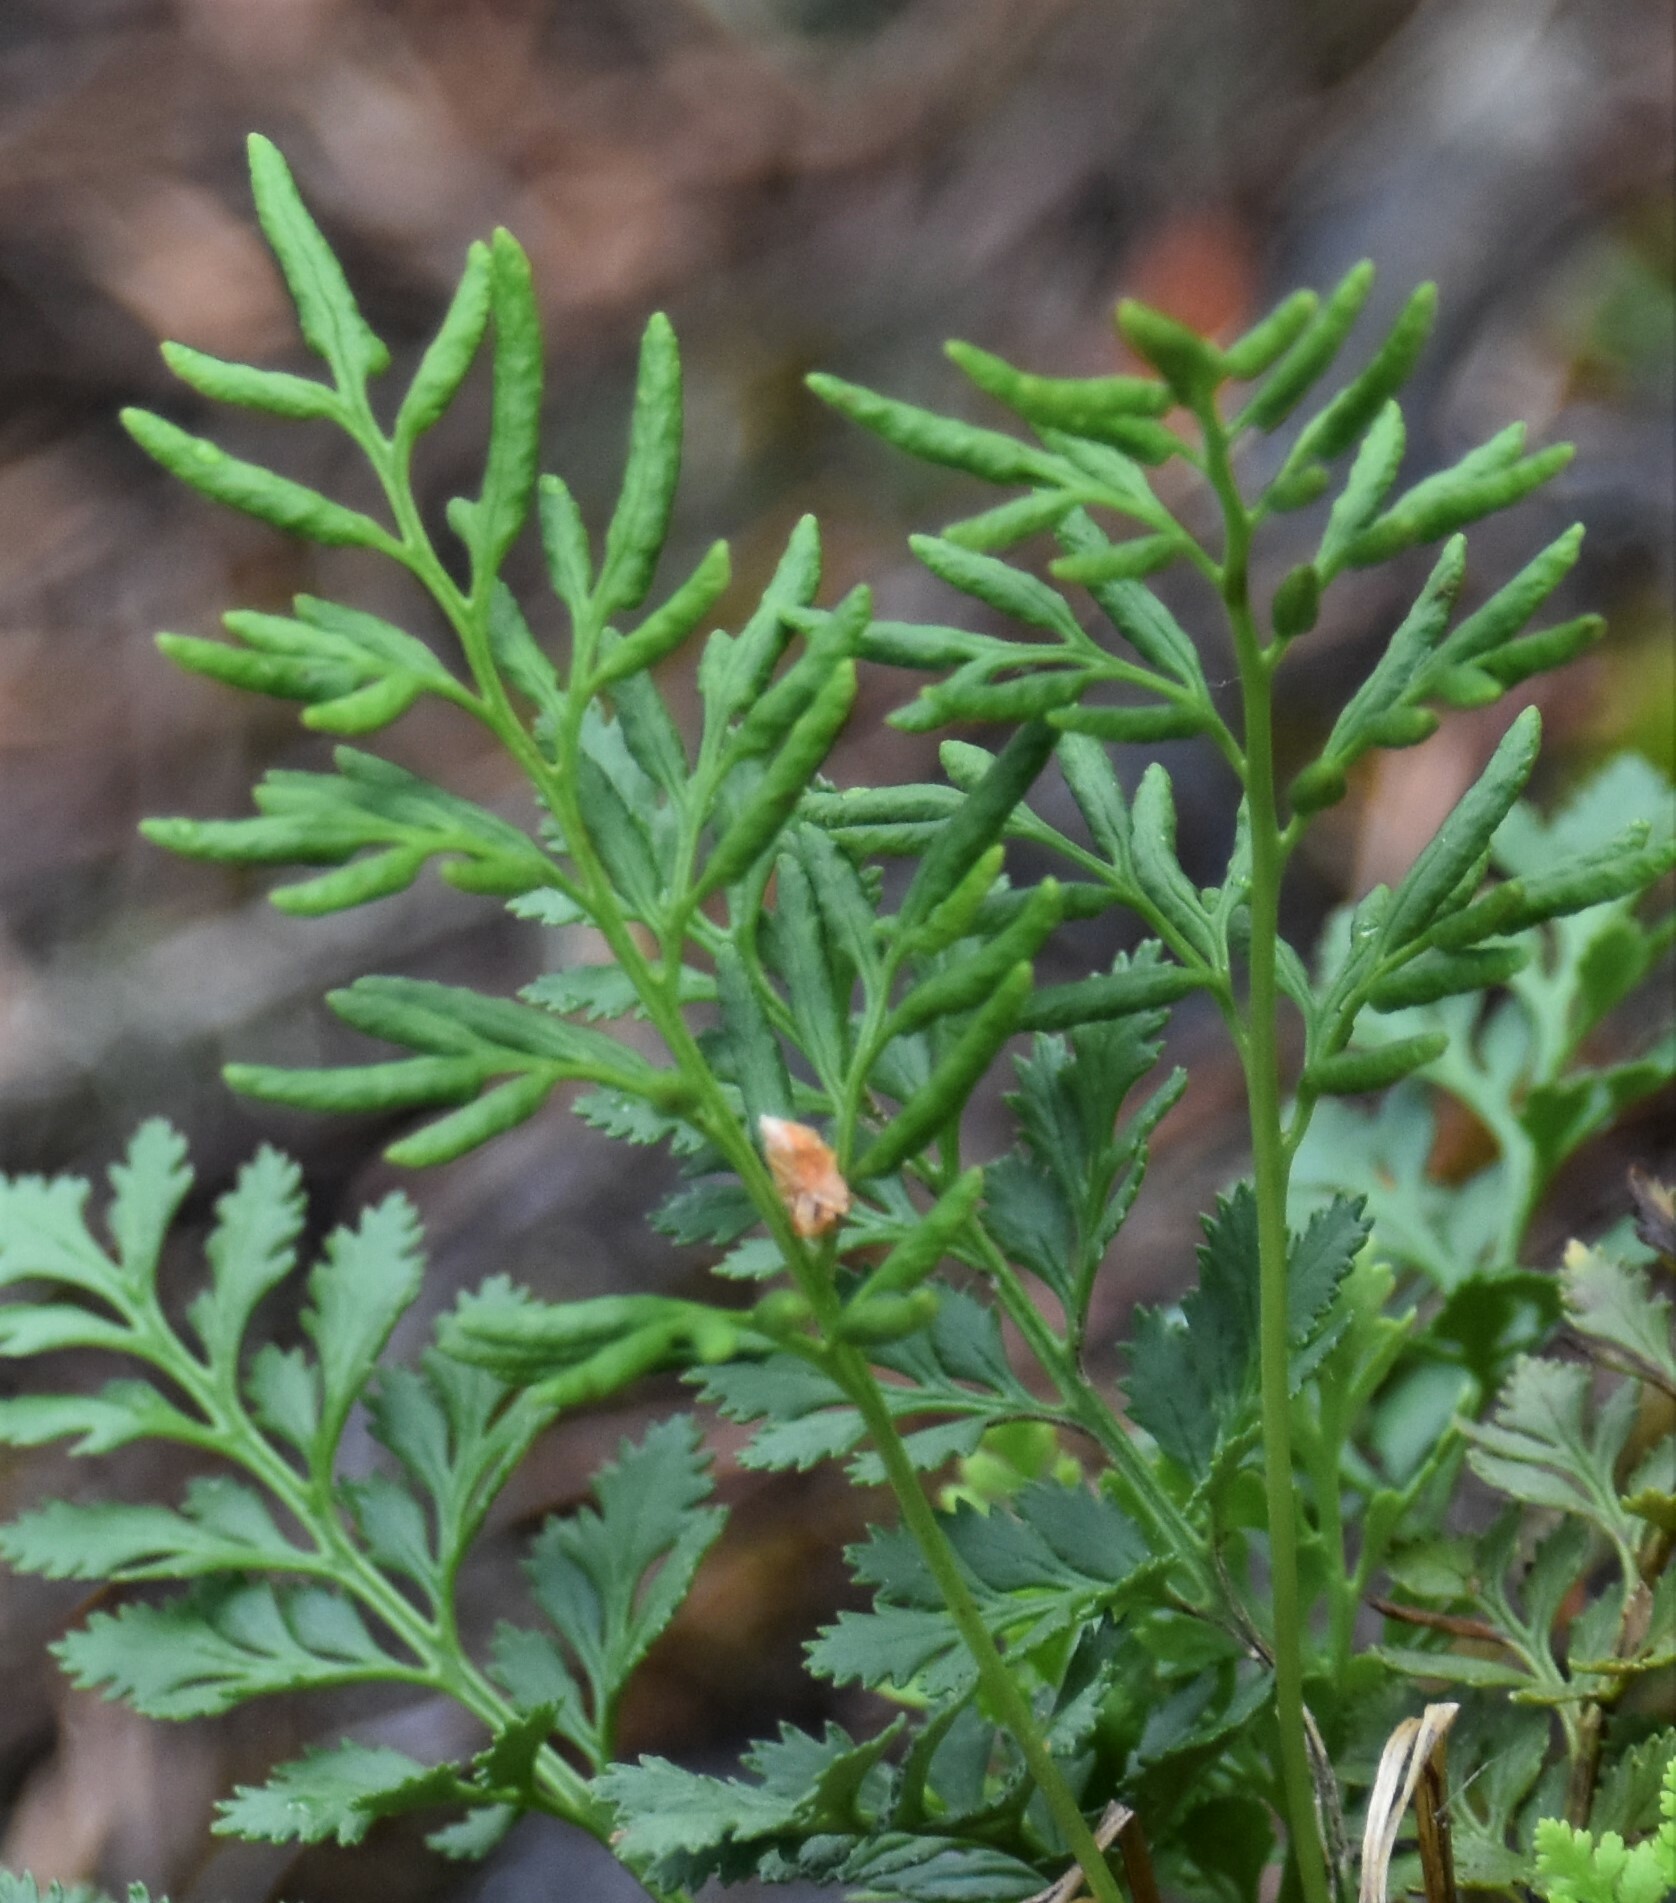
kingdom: Plantae
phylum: Tracheophyta
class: Polypodiopsida
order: Polypodiales
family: Pteridaceae
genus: Cryptogramma
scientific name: Cryptogramma acrostichoides
